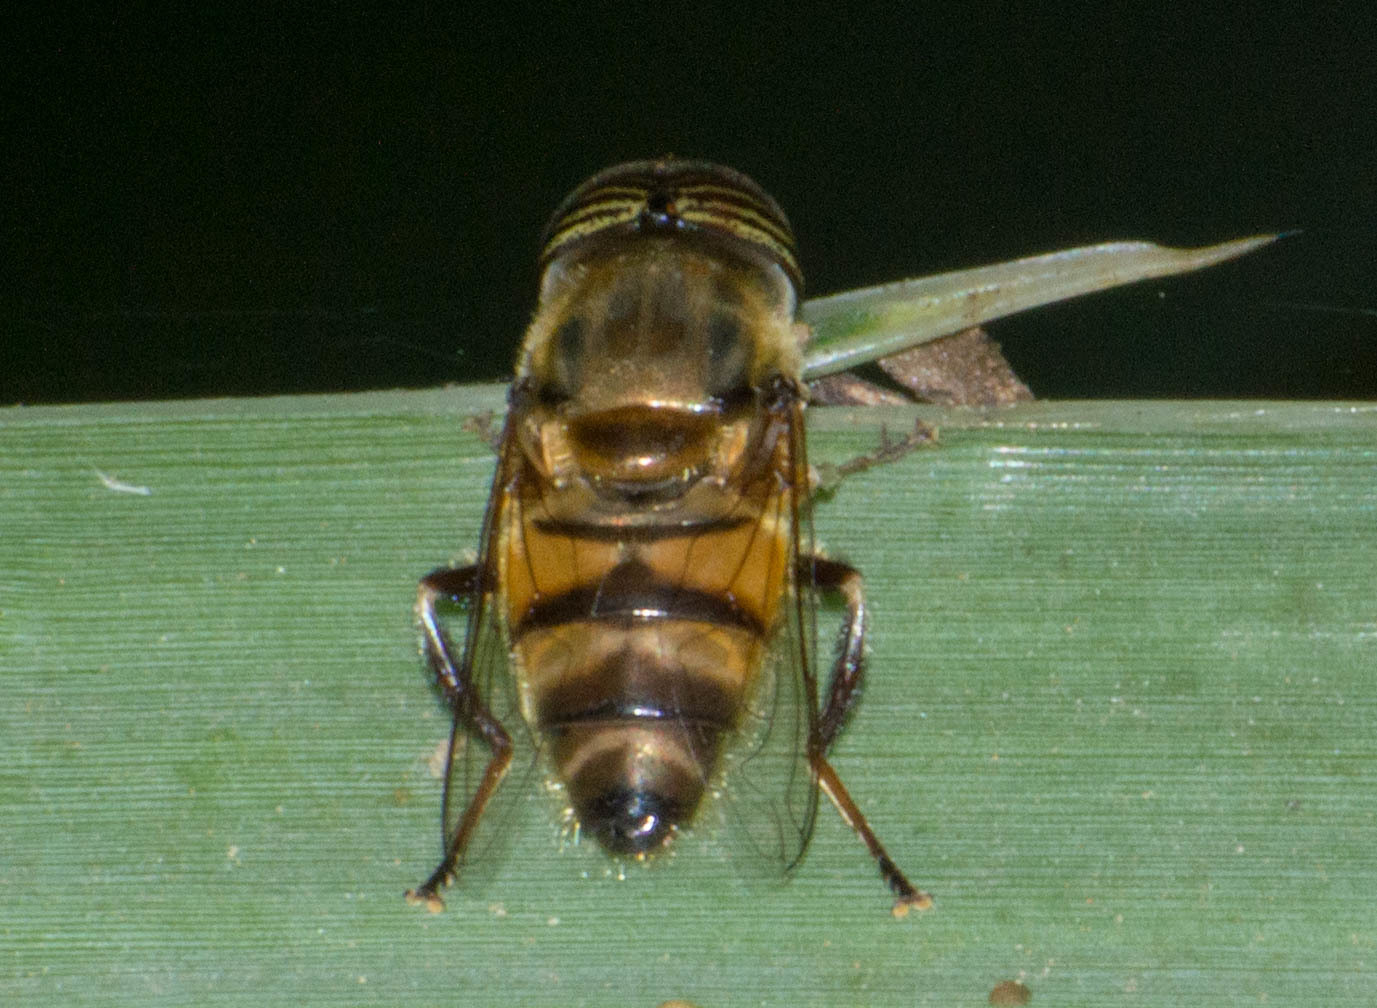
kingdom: Animalia
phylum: Arthropoda
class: Insecta
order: Diptera
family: Syrphidae
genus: Eristalinus
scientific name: Eristalinus taeniops
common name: Syrphid fly
